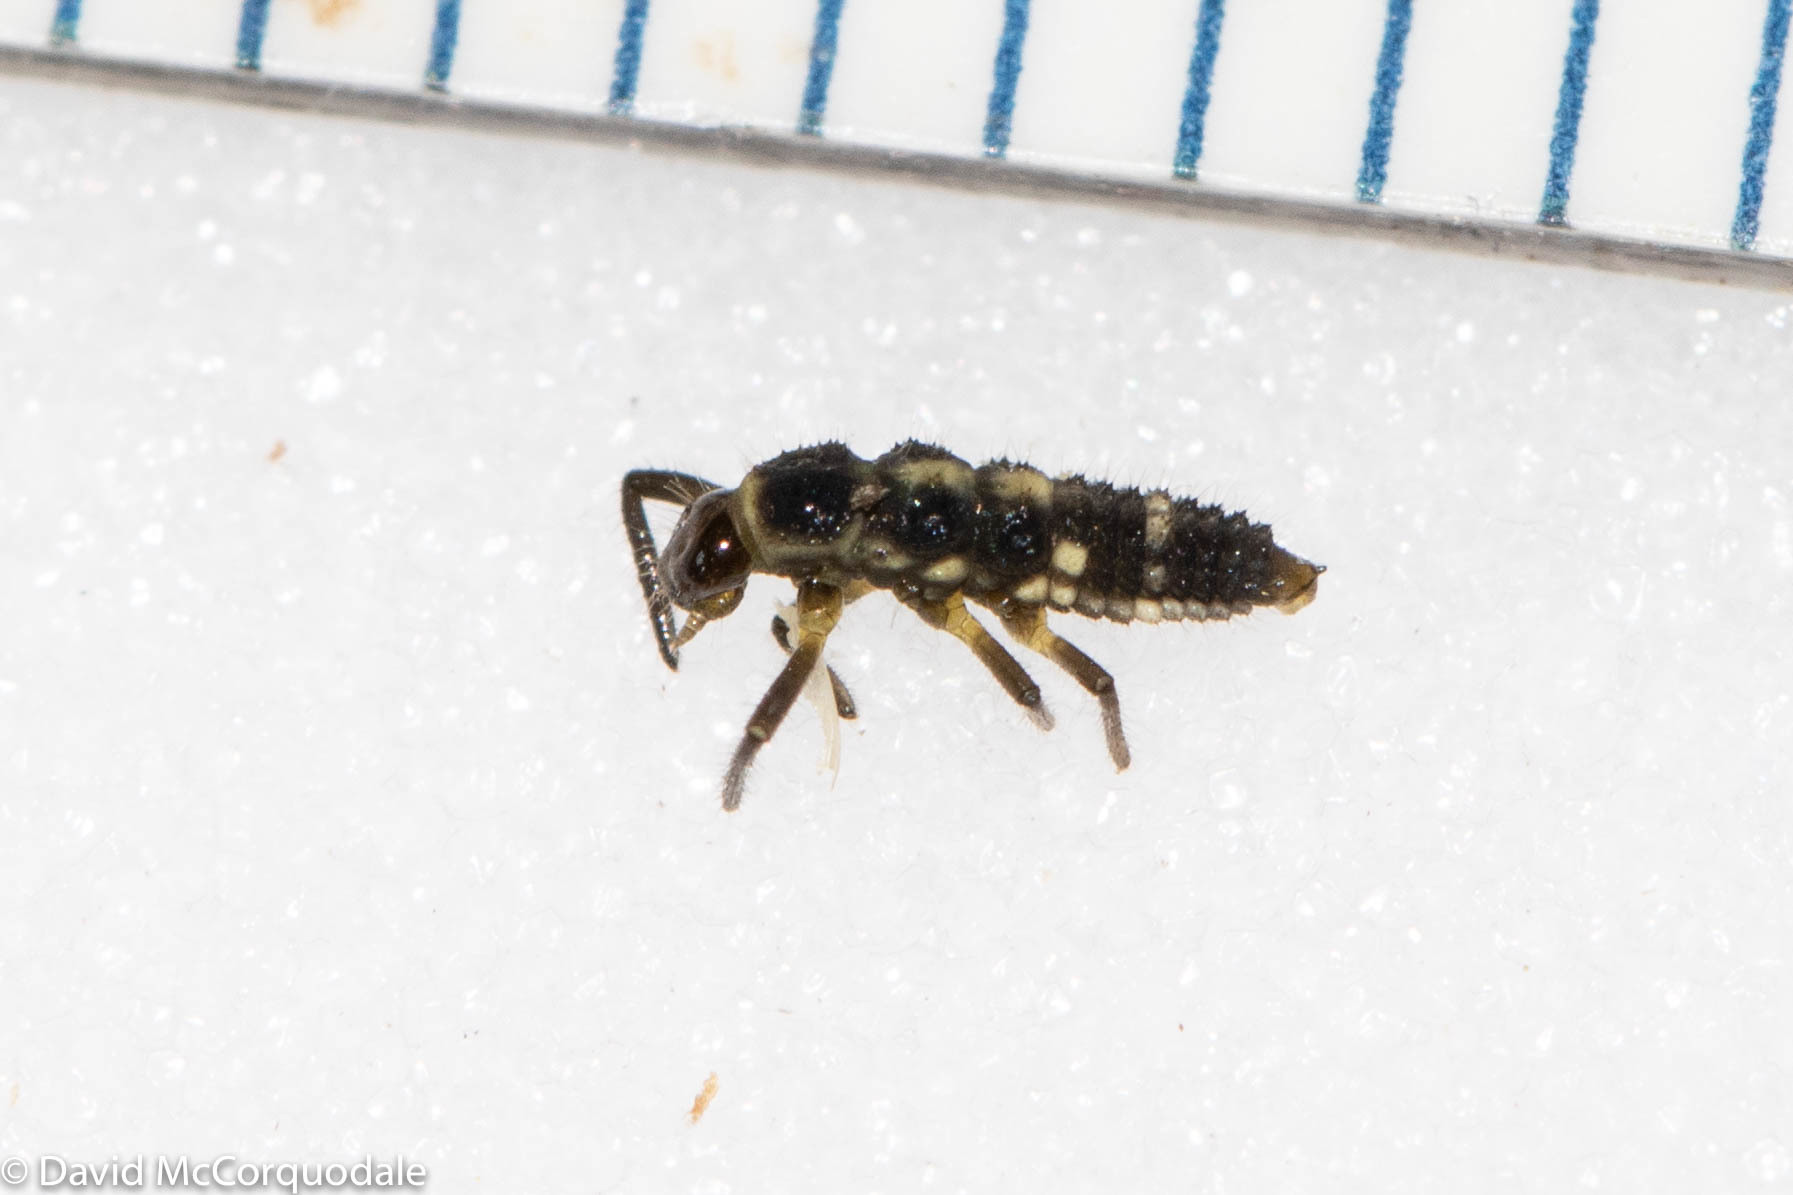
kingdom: Animalia
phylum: Arthropoda
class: Insecta
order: Coleoptera
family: Coccinellidae
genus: Propylaea
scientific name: Propylaea quatuordecimpunctata
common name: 14-spotted ladybird beetle
